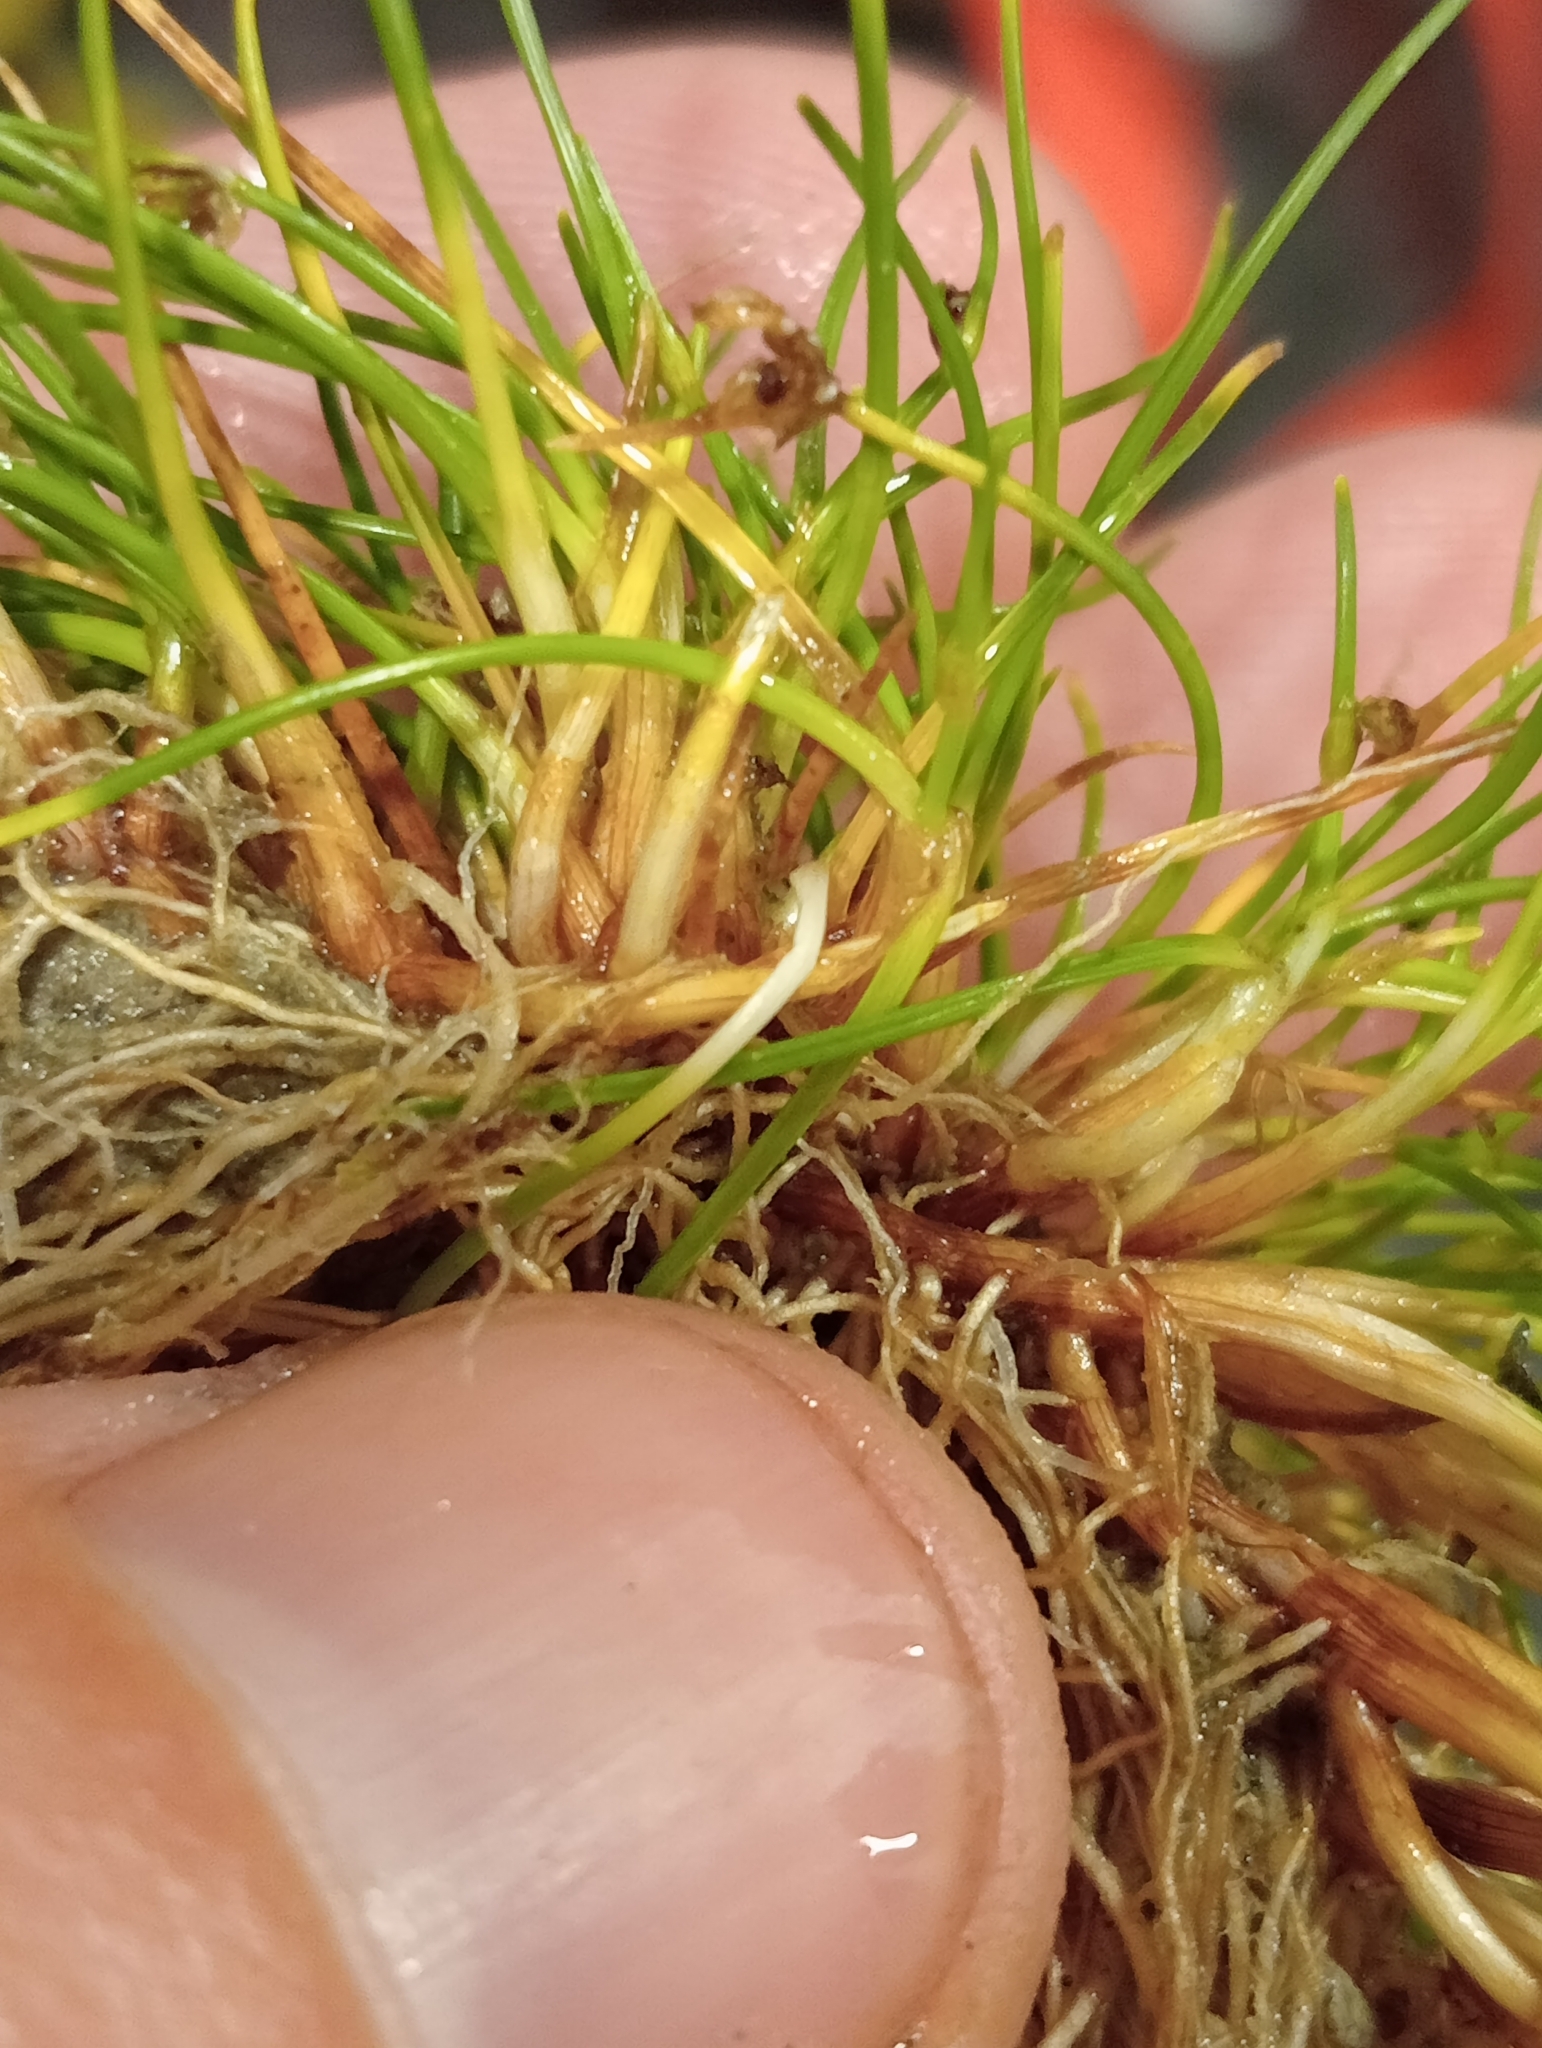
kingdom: Plantae
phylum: Tracheophyta
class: Liliopsida
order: Poales
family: Cyperaceae
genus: Isolepis
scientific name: Isolepis setacea
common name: Bristle club-rush
